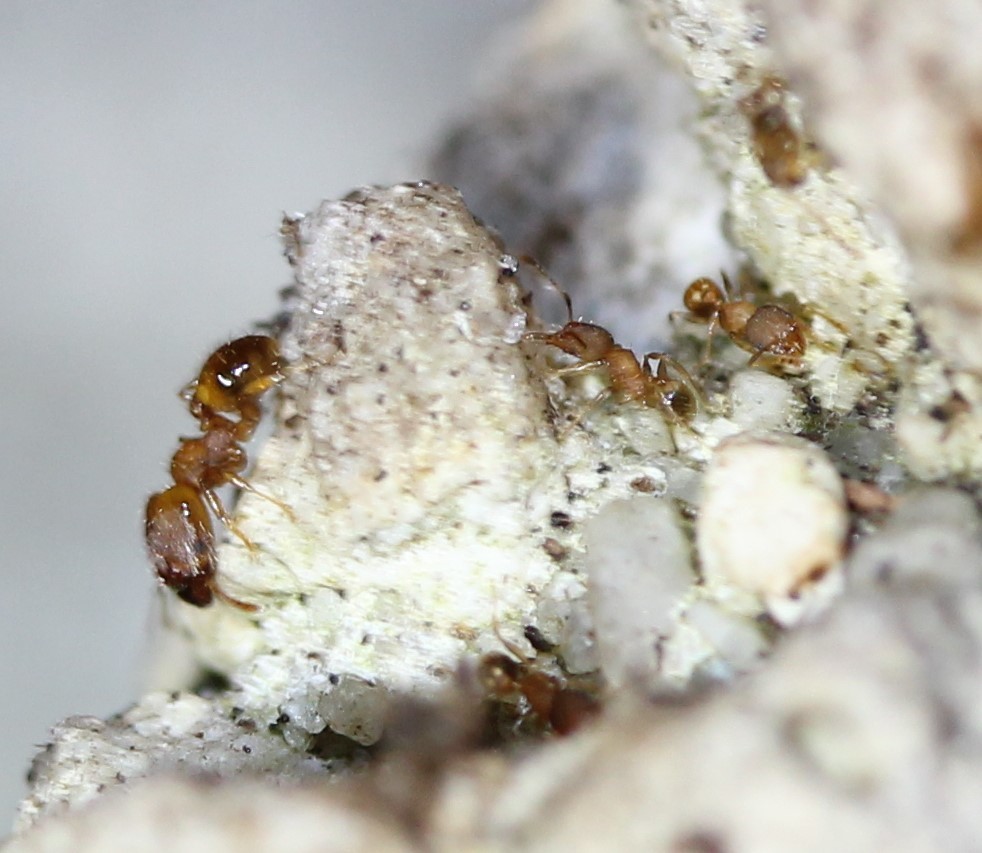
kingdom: Animalia
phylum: Arthropoda
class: Insecta
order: Hymenoptera
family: Formicidae
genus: Pheidole
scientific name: Pheidole bilimeki
